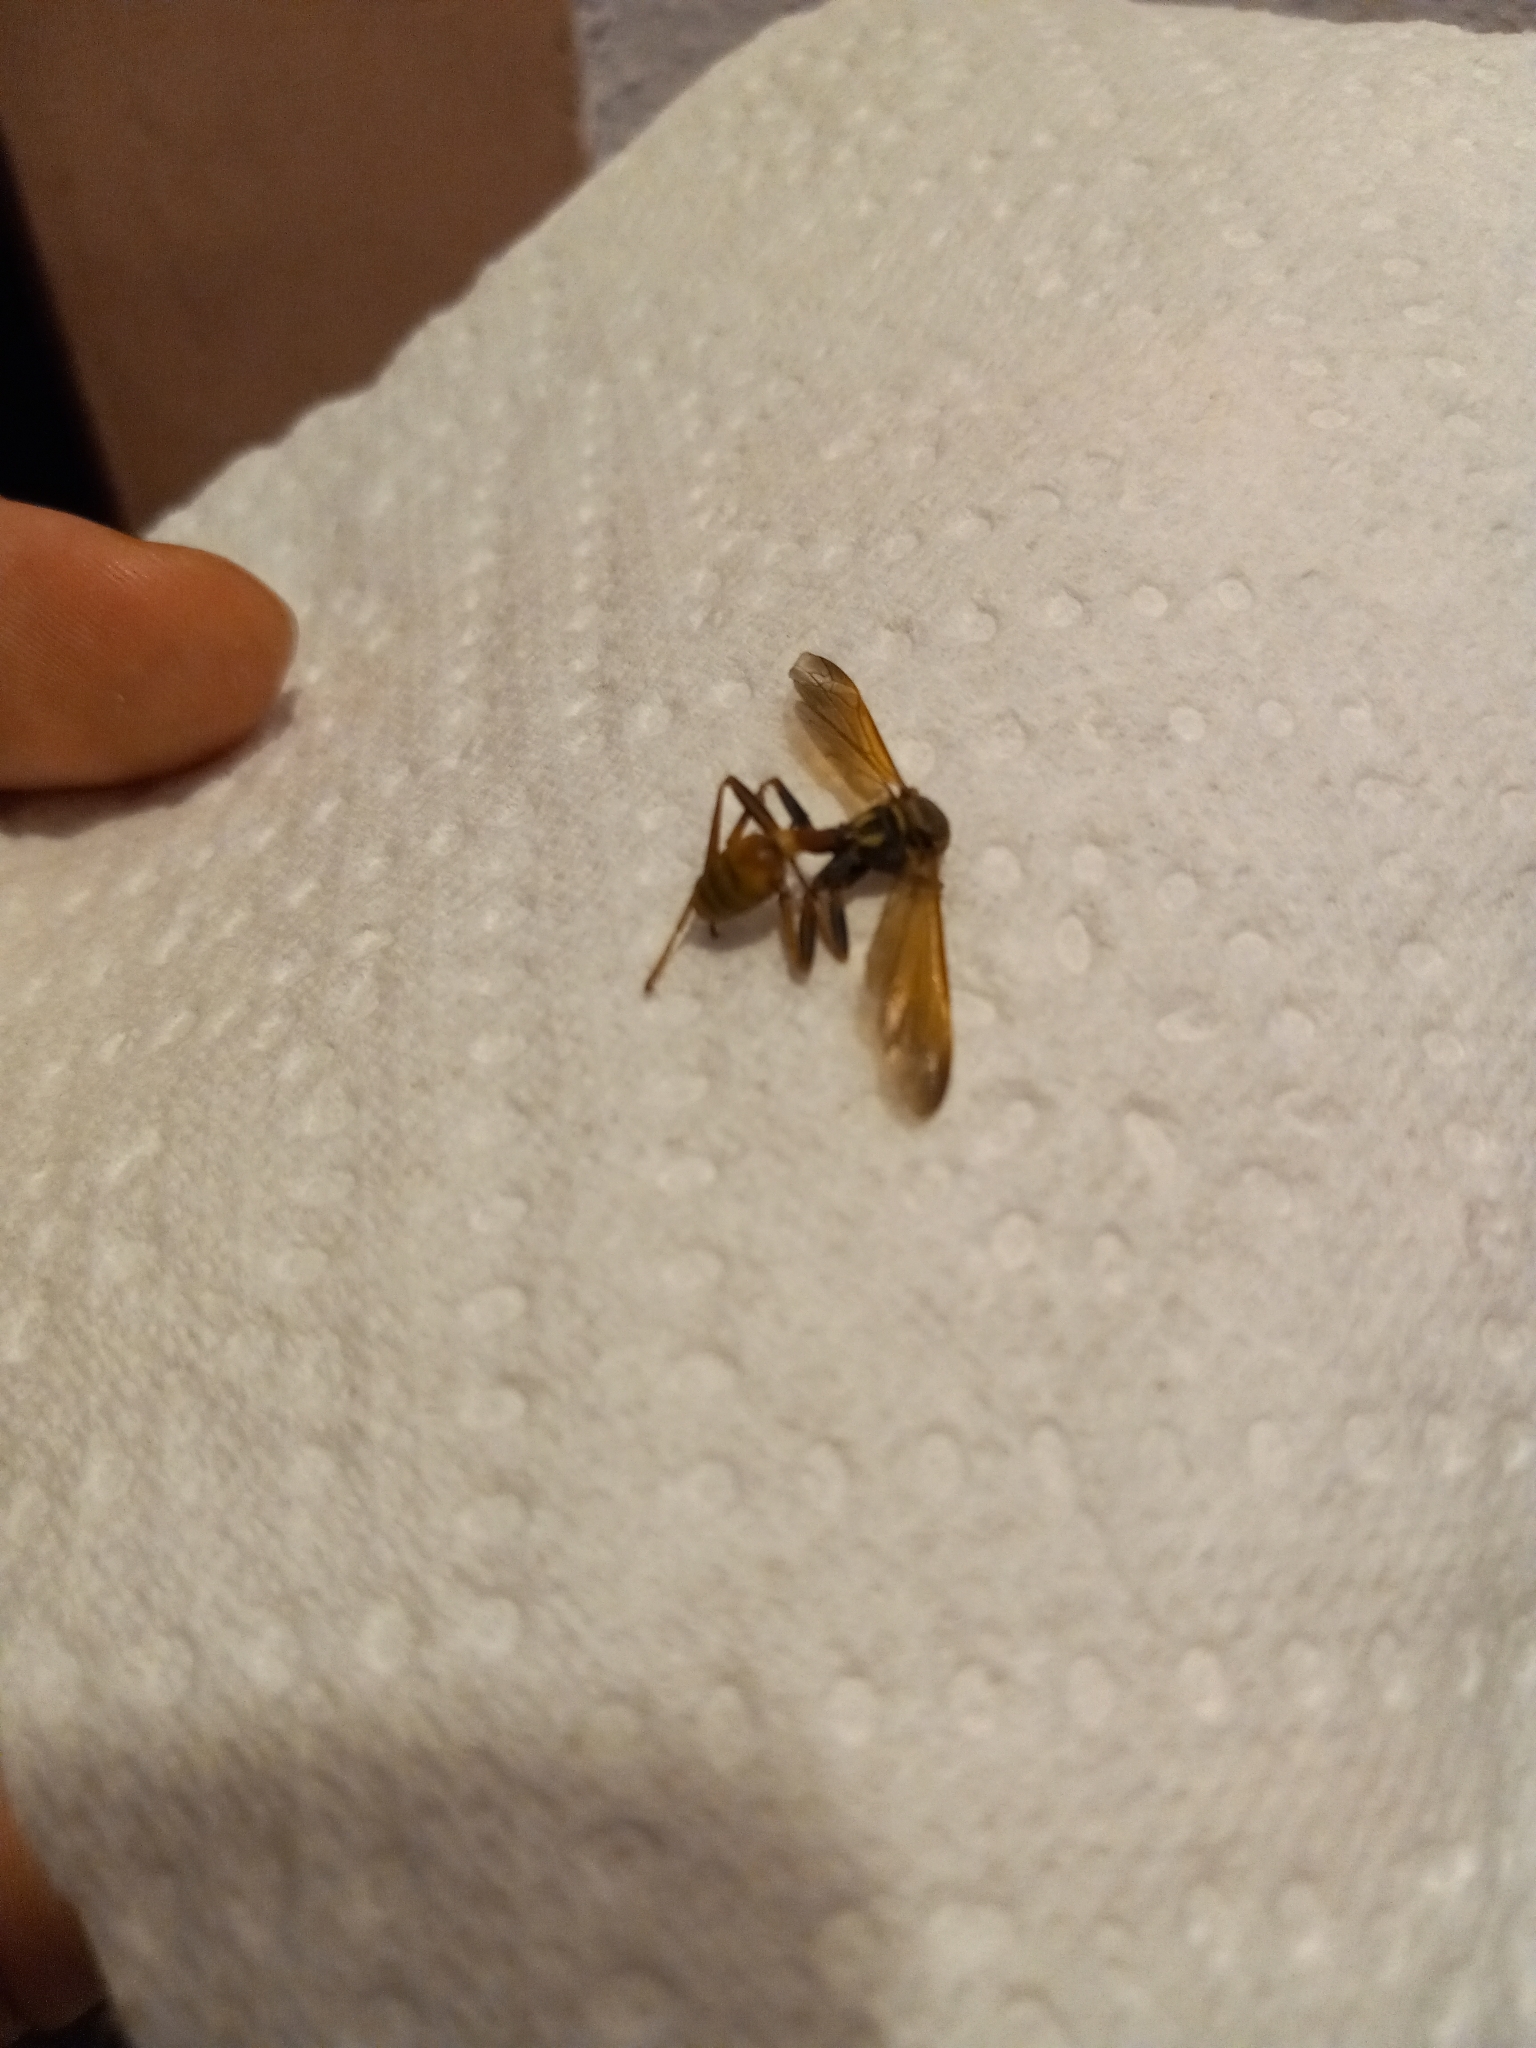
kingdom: Animalia
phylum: Arthropoda
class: Insecta
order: Hymenoptera
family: Vespidae
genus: Mischocyttarus
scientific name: Mischocyttarus flavitarsis
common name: Wasp
